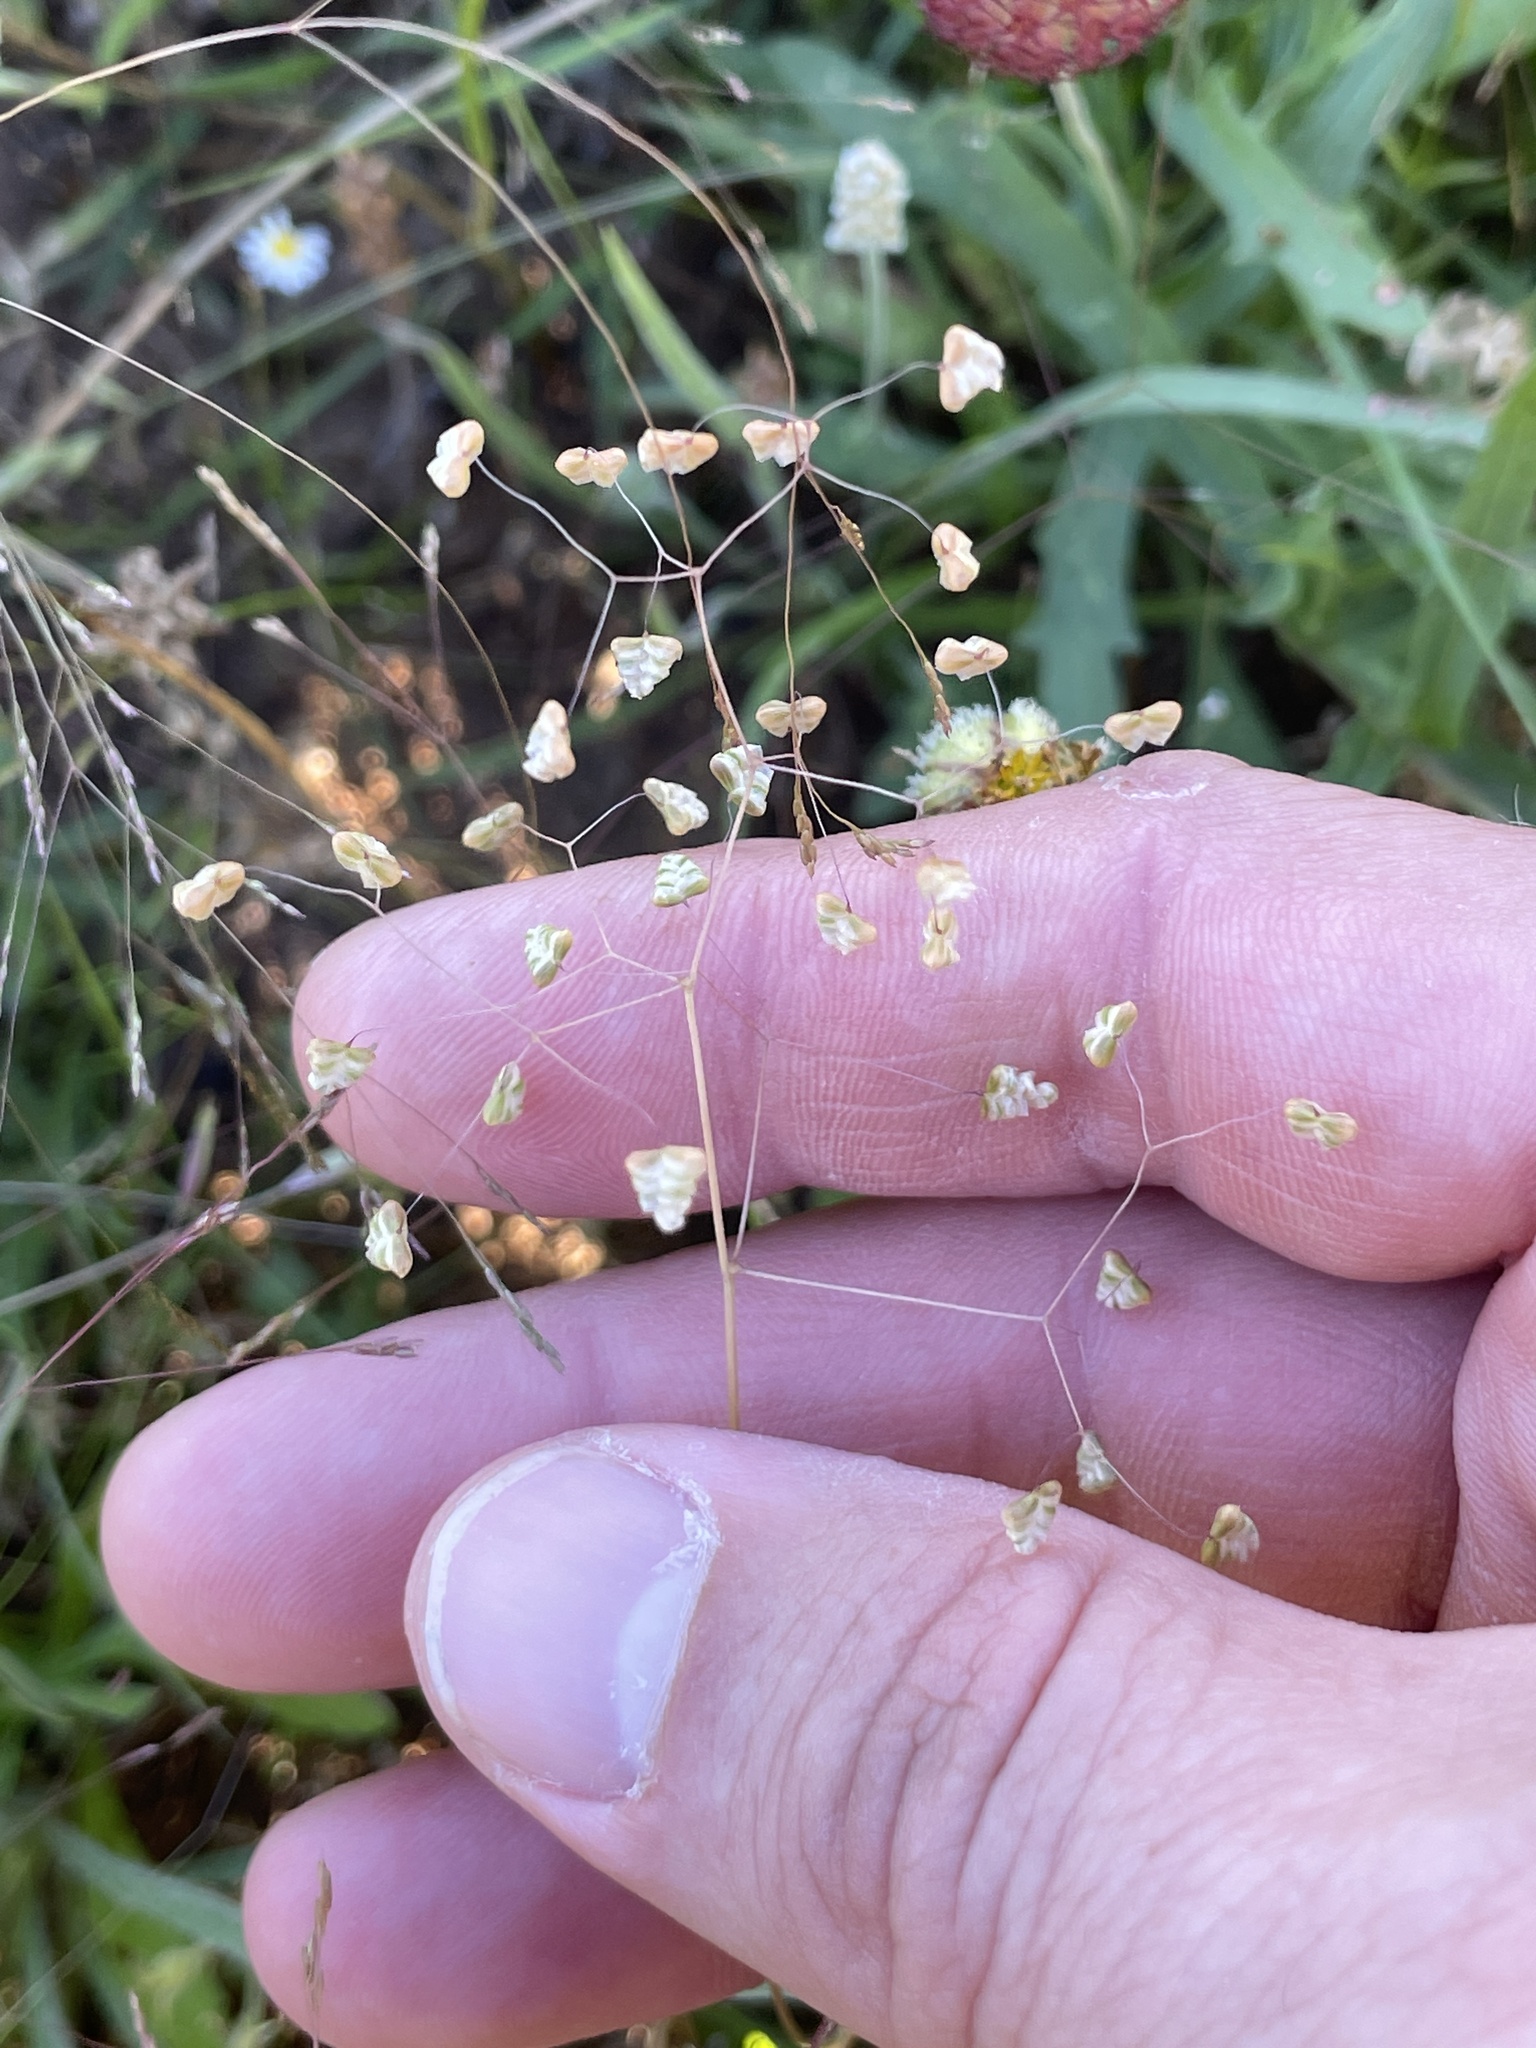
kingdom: Plantae
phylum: Tracheophyta
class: Liliopsida
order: Poales
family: Poaceae
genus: Briza
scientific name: Briza minor
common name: Lesser quaking-grass
